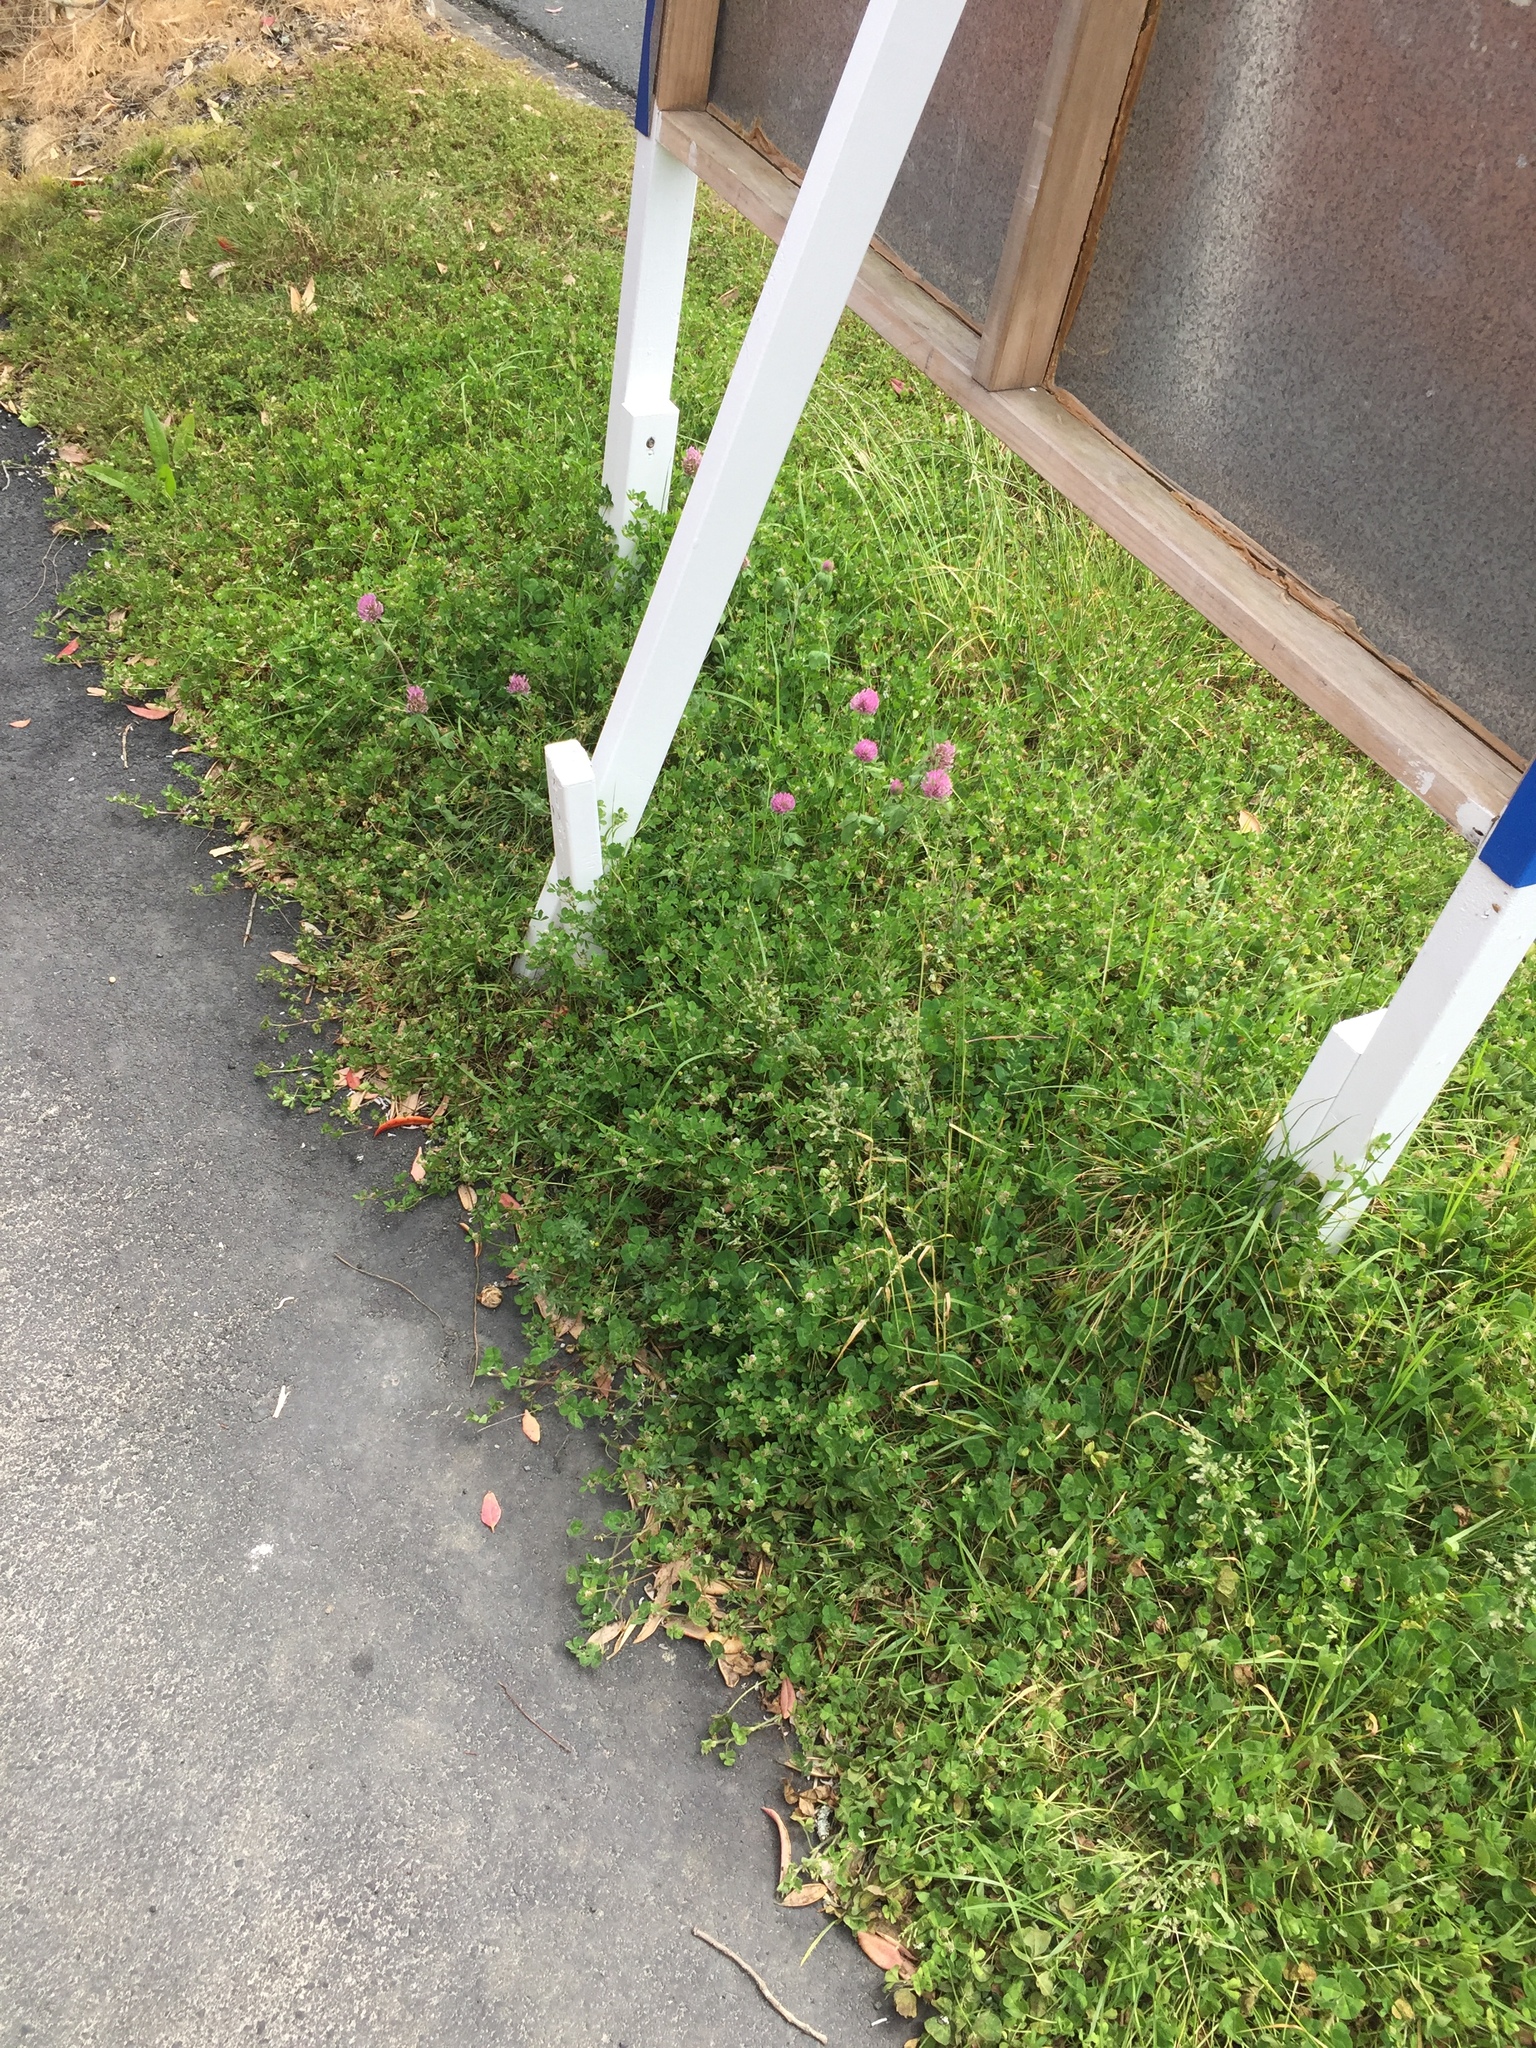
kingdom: Plantae
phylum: Tracheophyta
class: Magnoliopsida
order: Fabales
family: Fabaceae
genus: Trifolium
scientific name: Trifolium glomeratum
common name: Clustered clover
